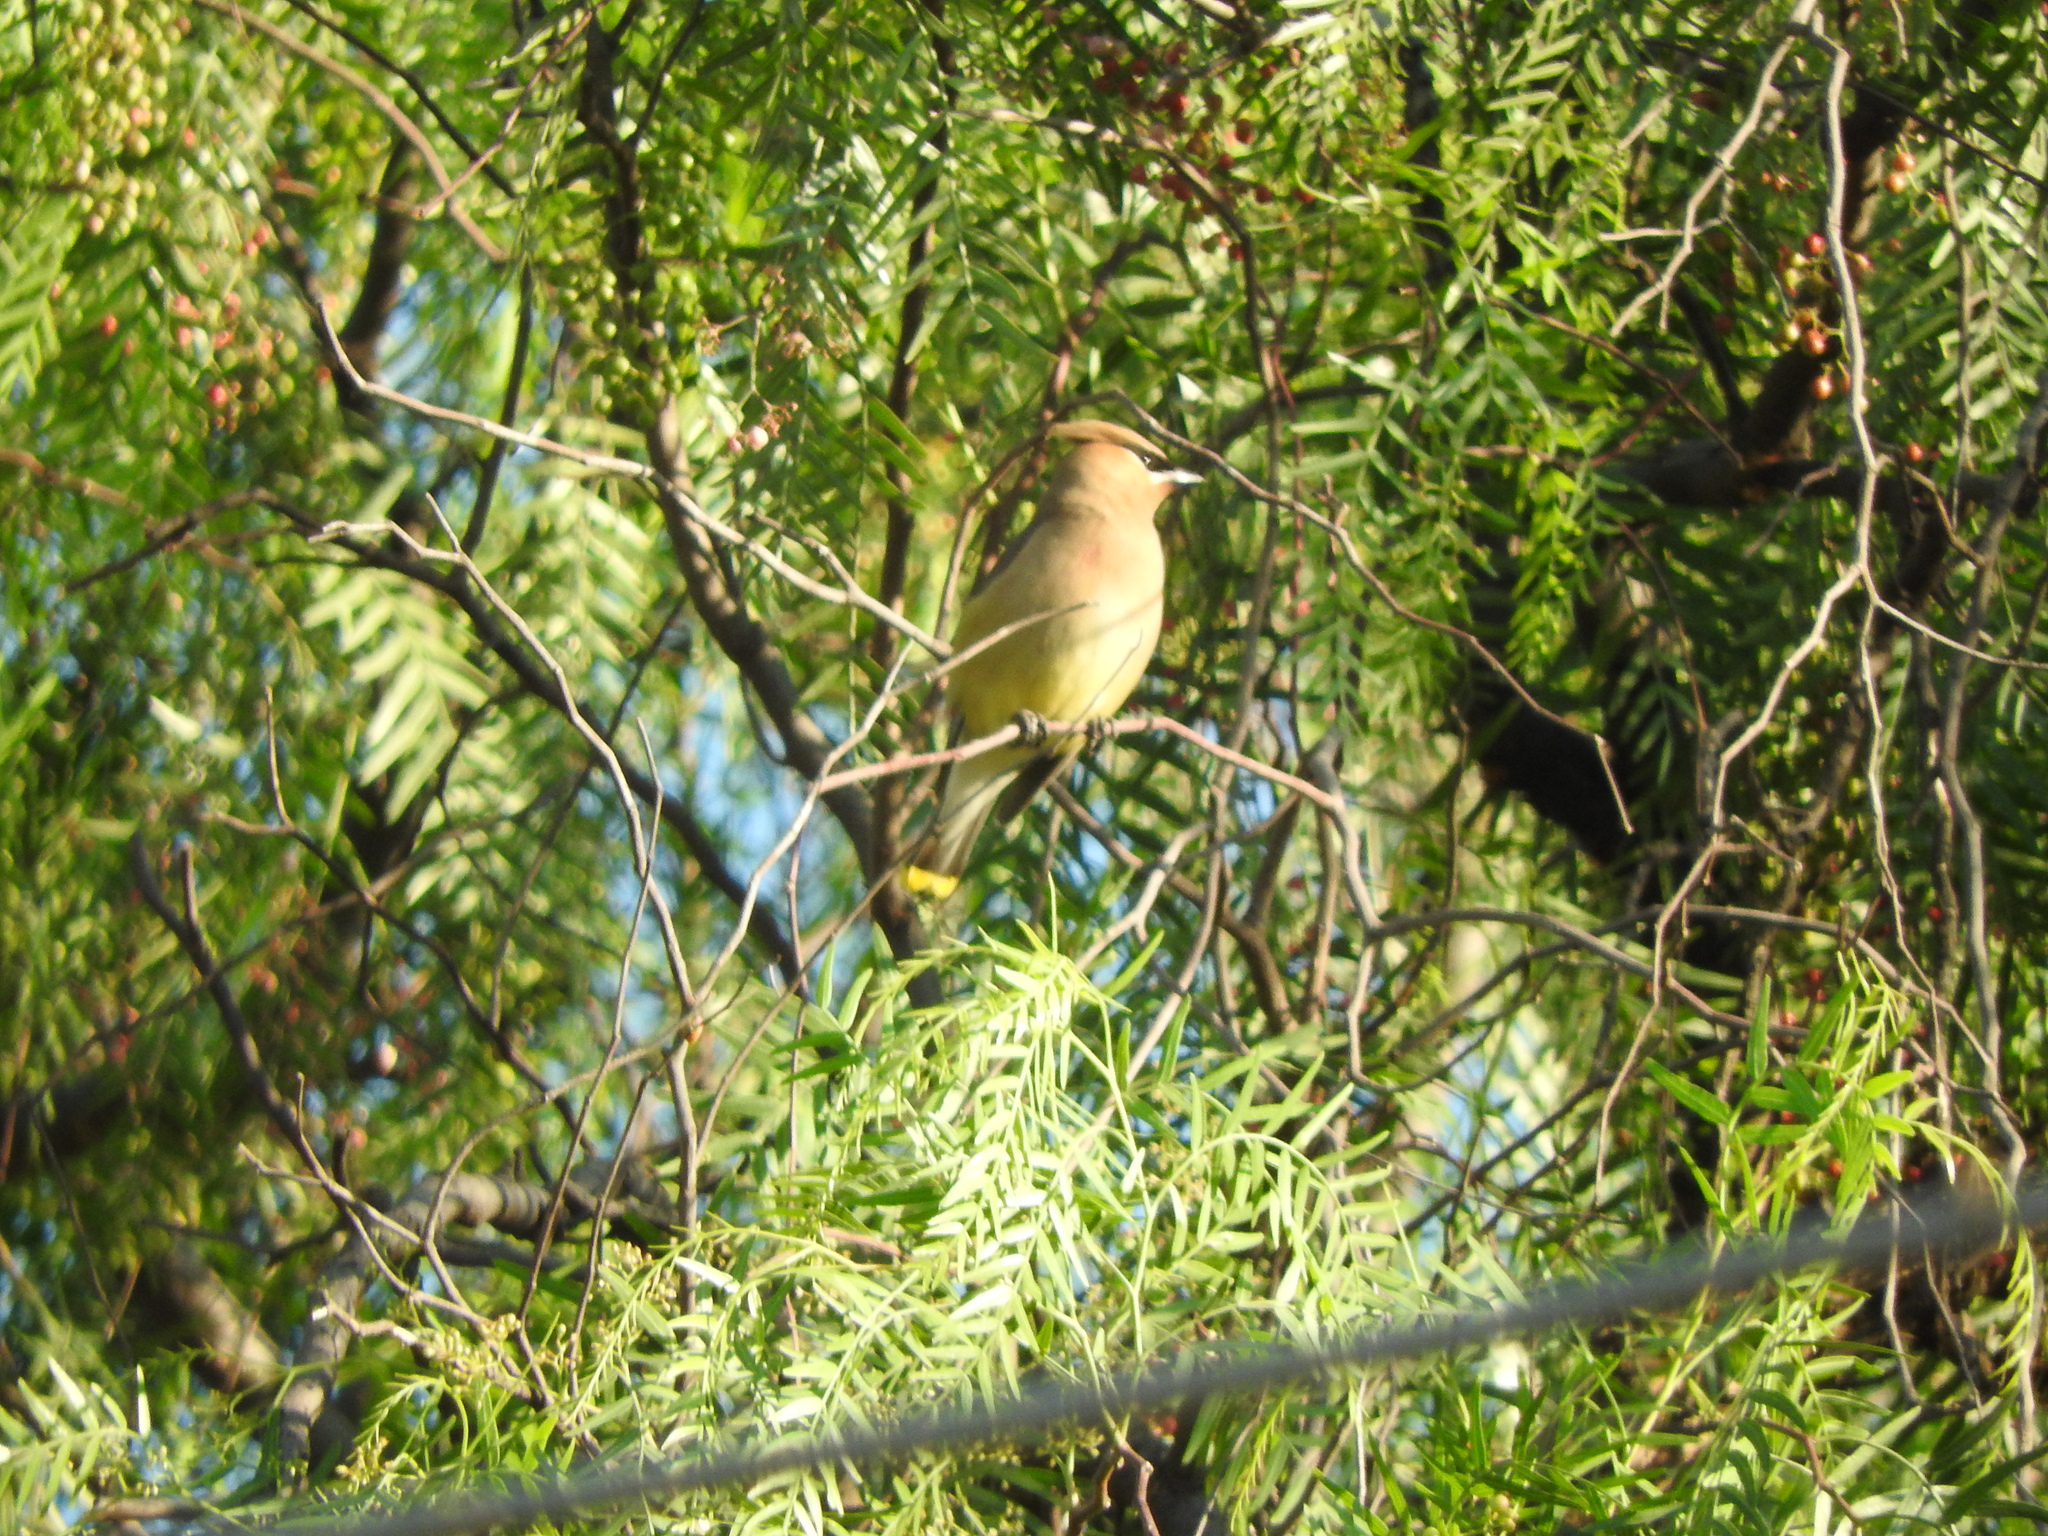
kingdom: Animalia
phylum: Chordata
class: Aves
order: Passeriformes
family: Bombycillidae
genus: Bombycilla
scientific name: Bombycilla cedrorum
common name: Cedar waxwing
